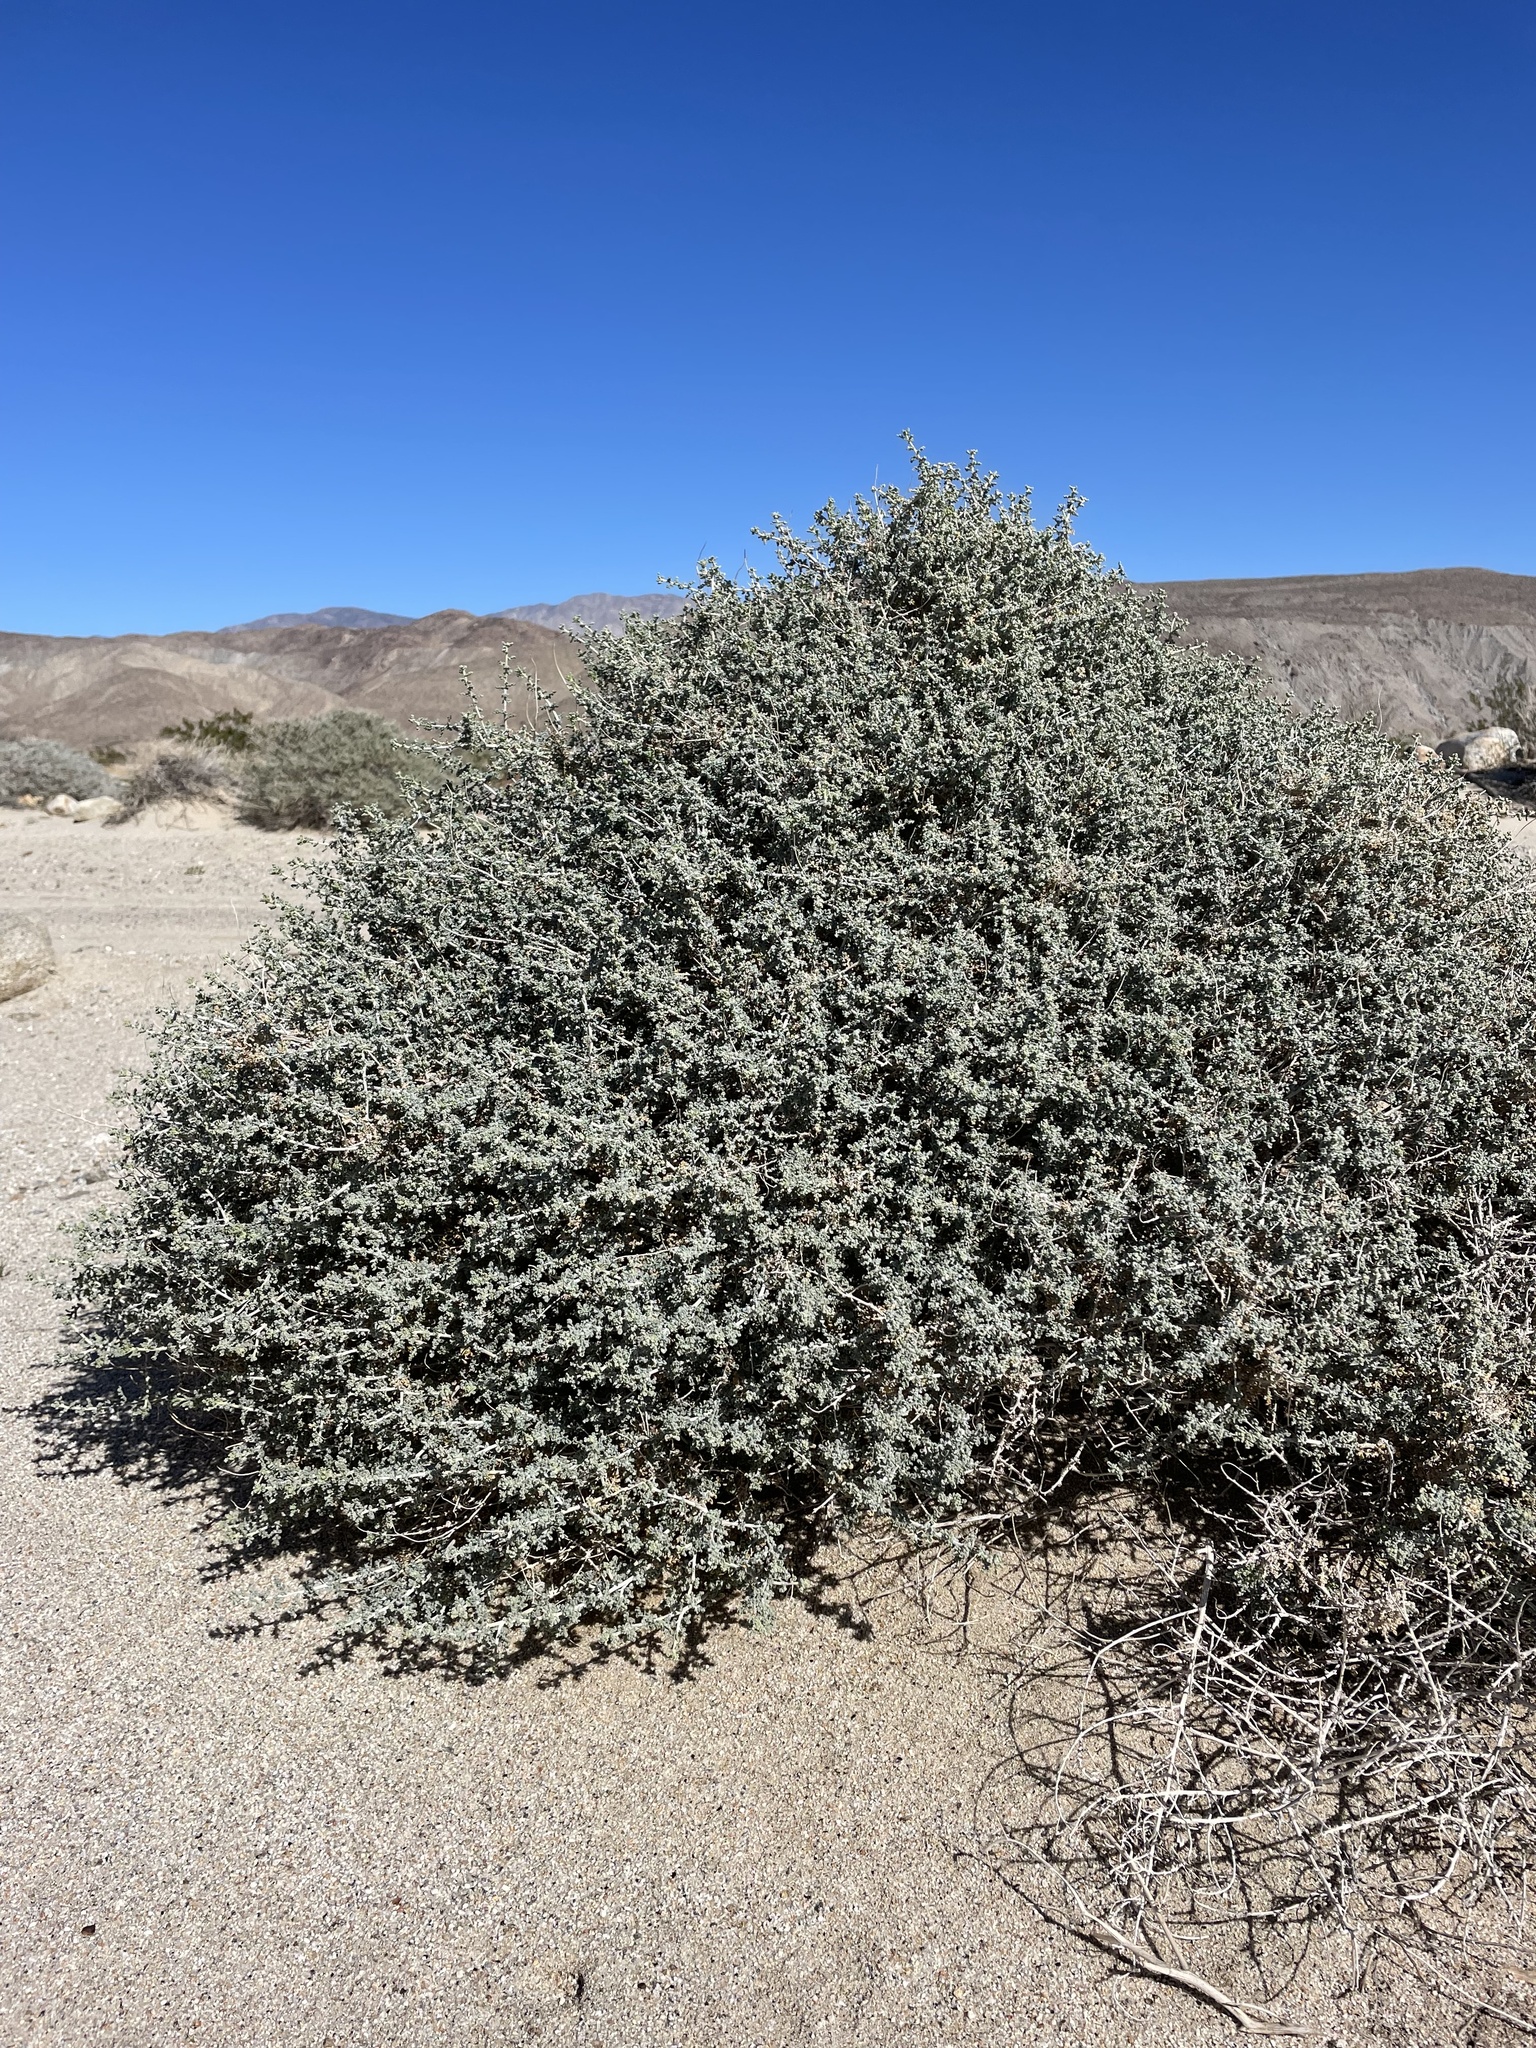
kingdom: Plantae
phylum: Tracheophyta
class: Magnoliopsida
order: Asterales
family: Asteraceae
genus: Ambrosia
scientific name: Ambrosia dumosa
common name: Bur-sage
